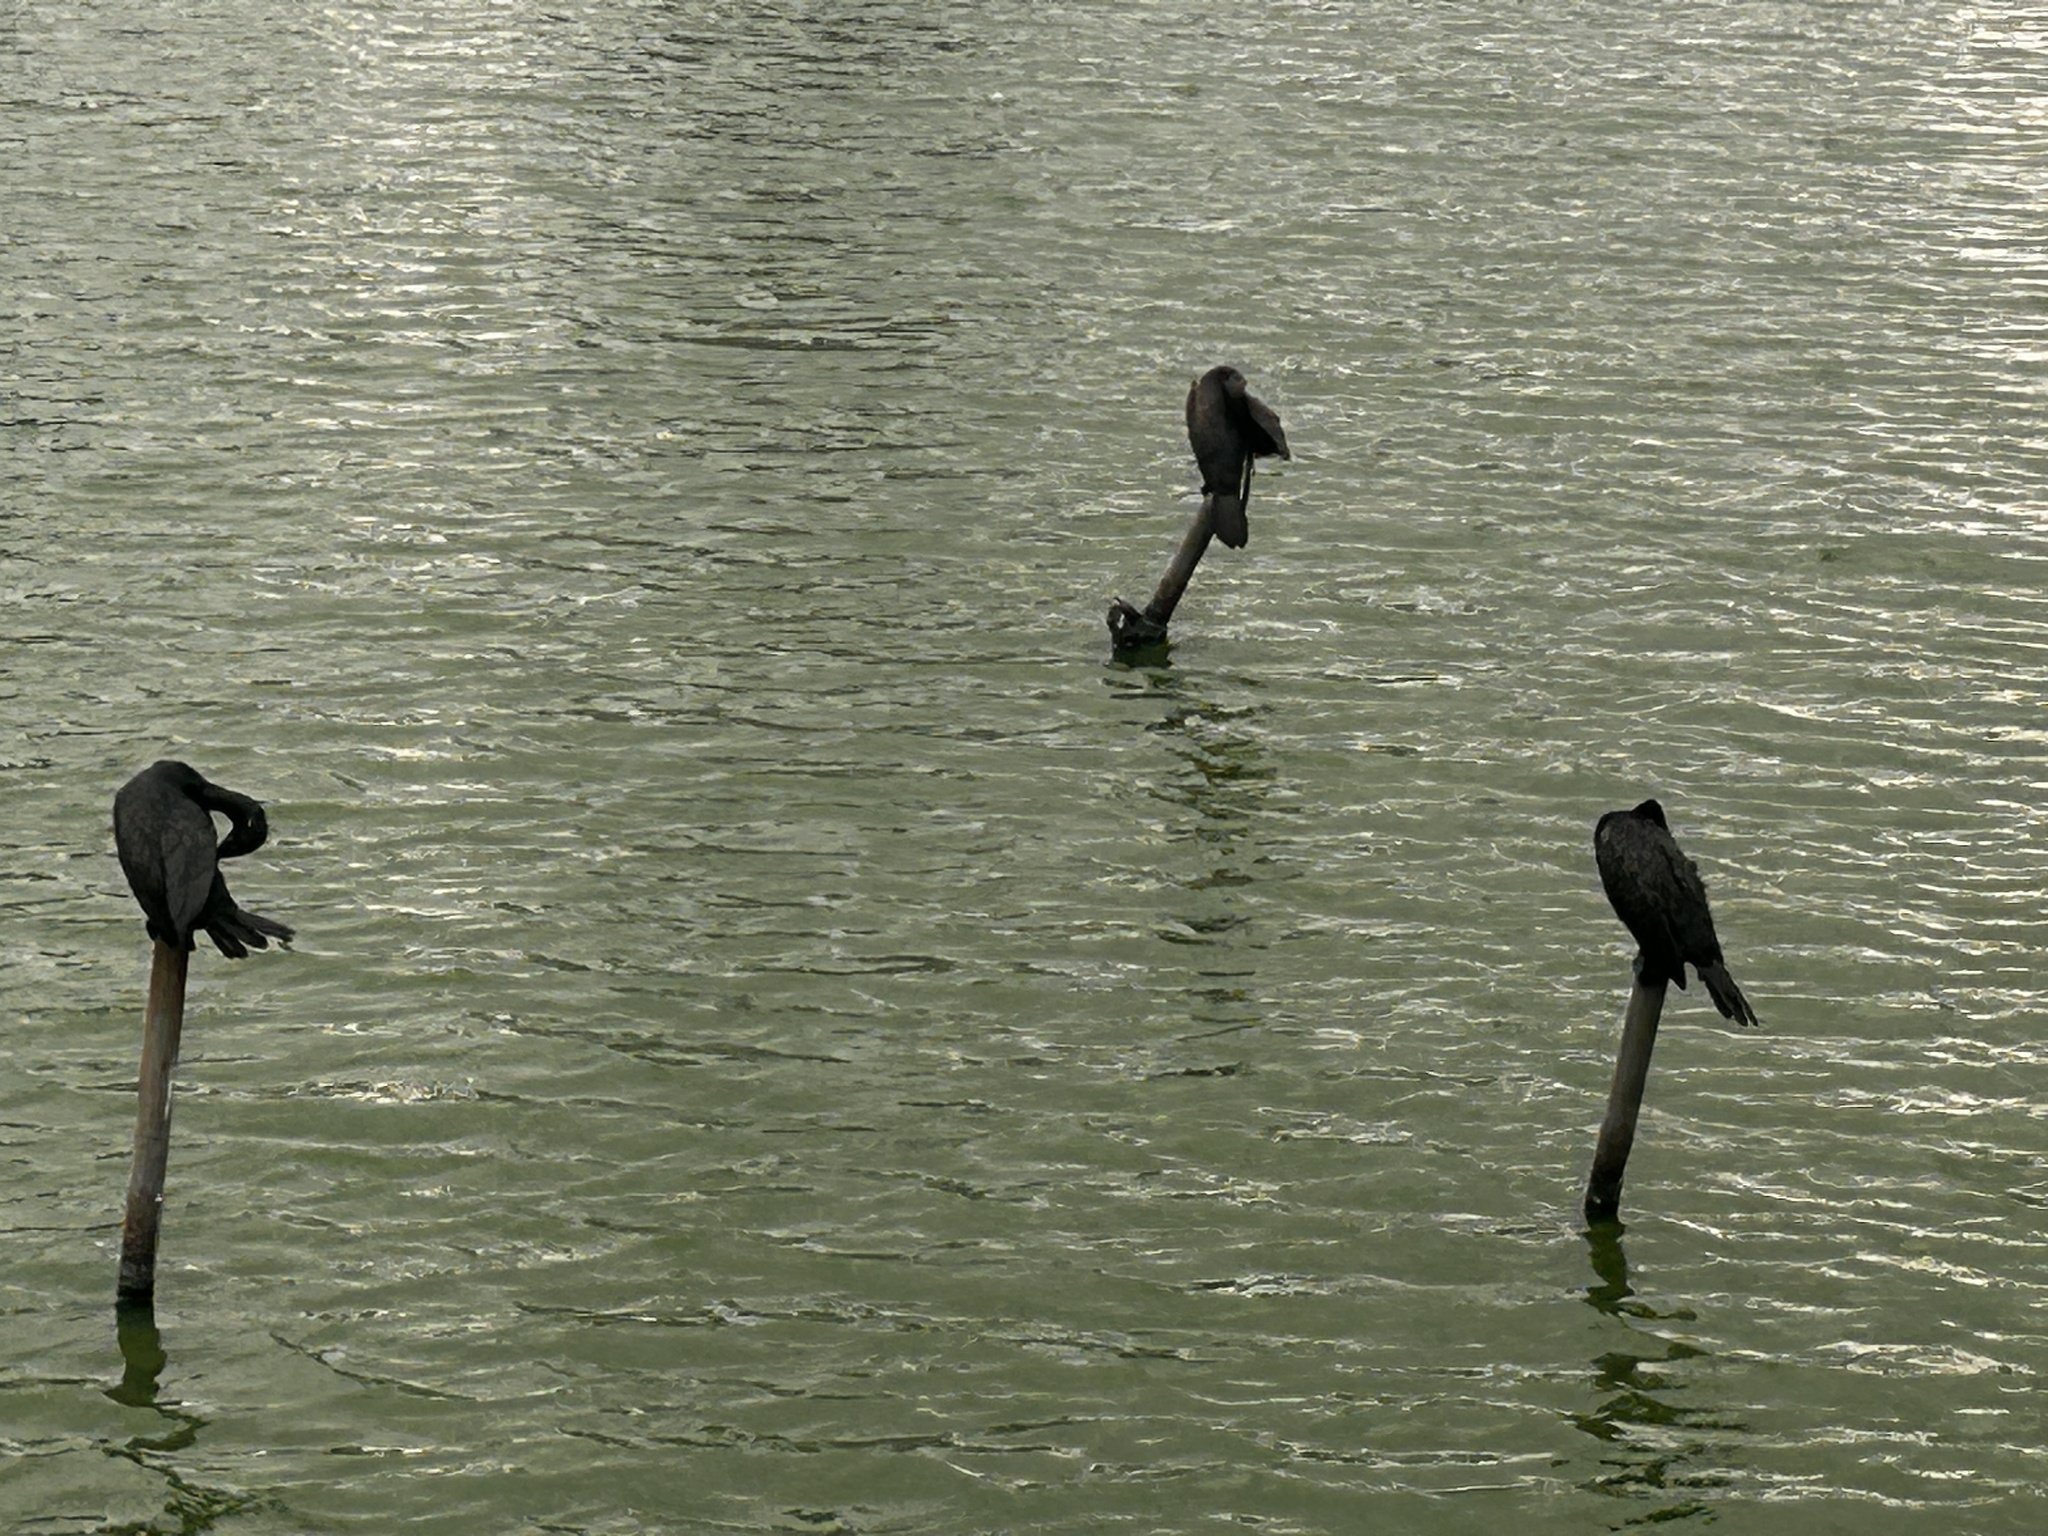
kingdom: Animalia
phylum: Chordata
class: Aves
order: Suliformes
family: Phalacrocoracidae
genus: Phalacrocorax
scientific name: Phalacrocorax fuscicollis
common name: Indian cormorant
